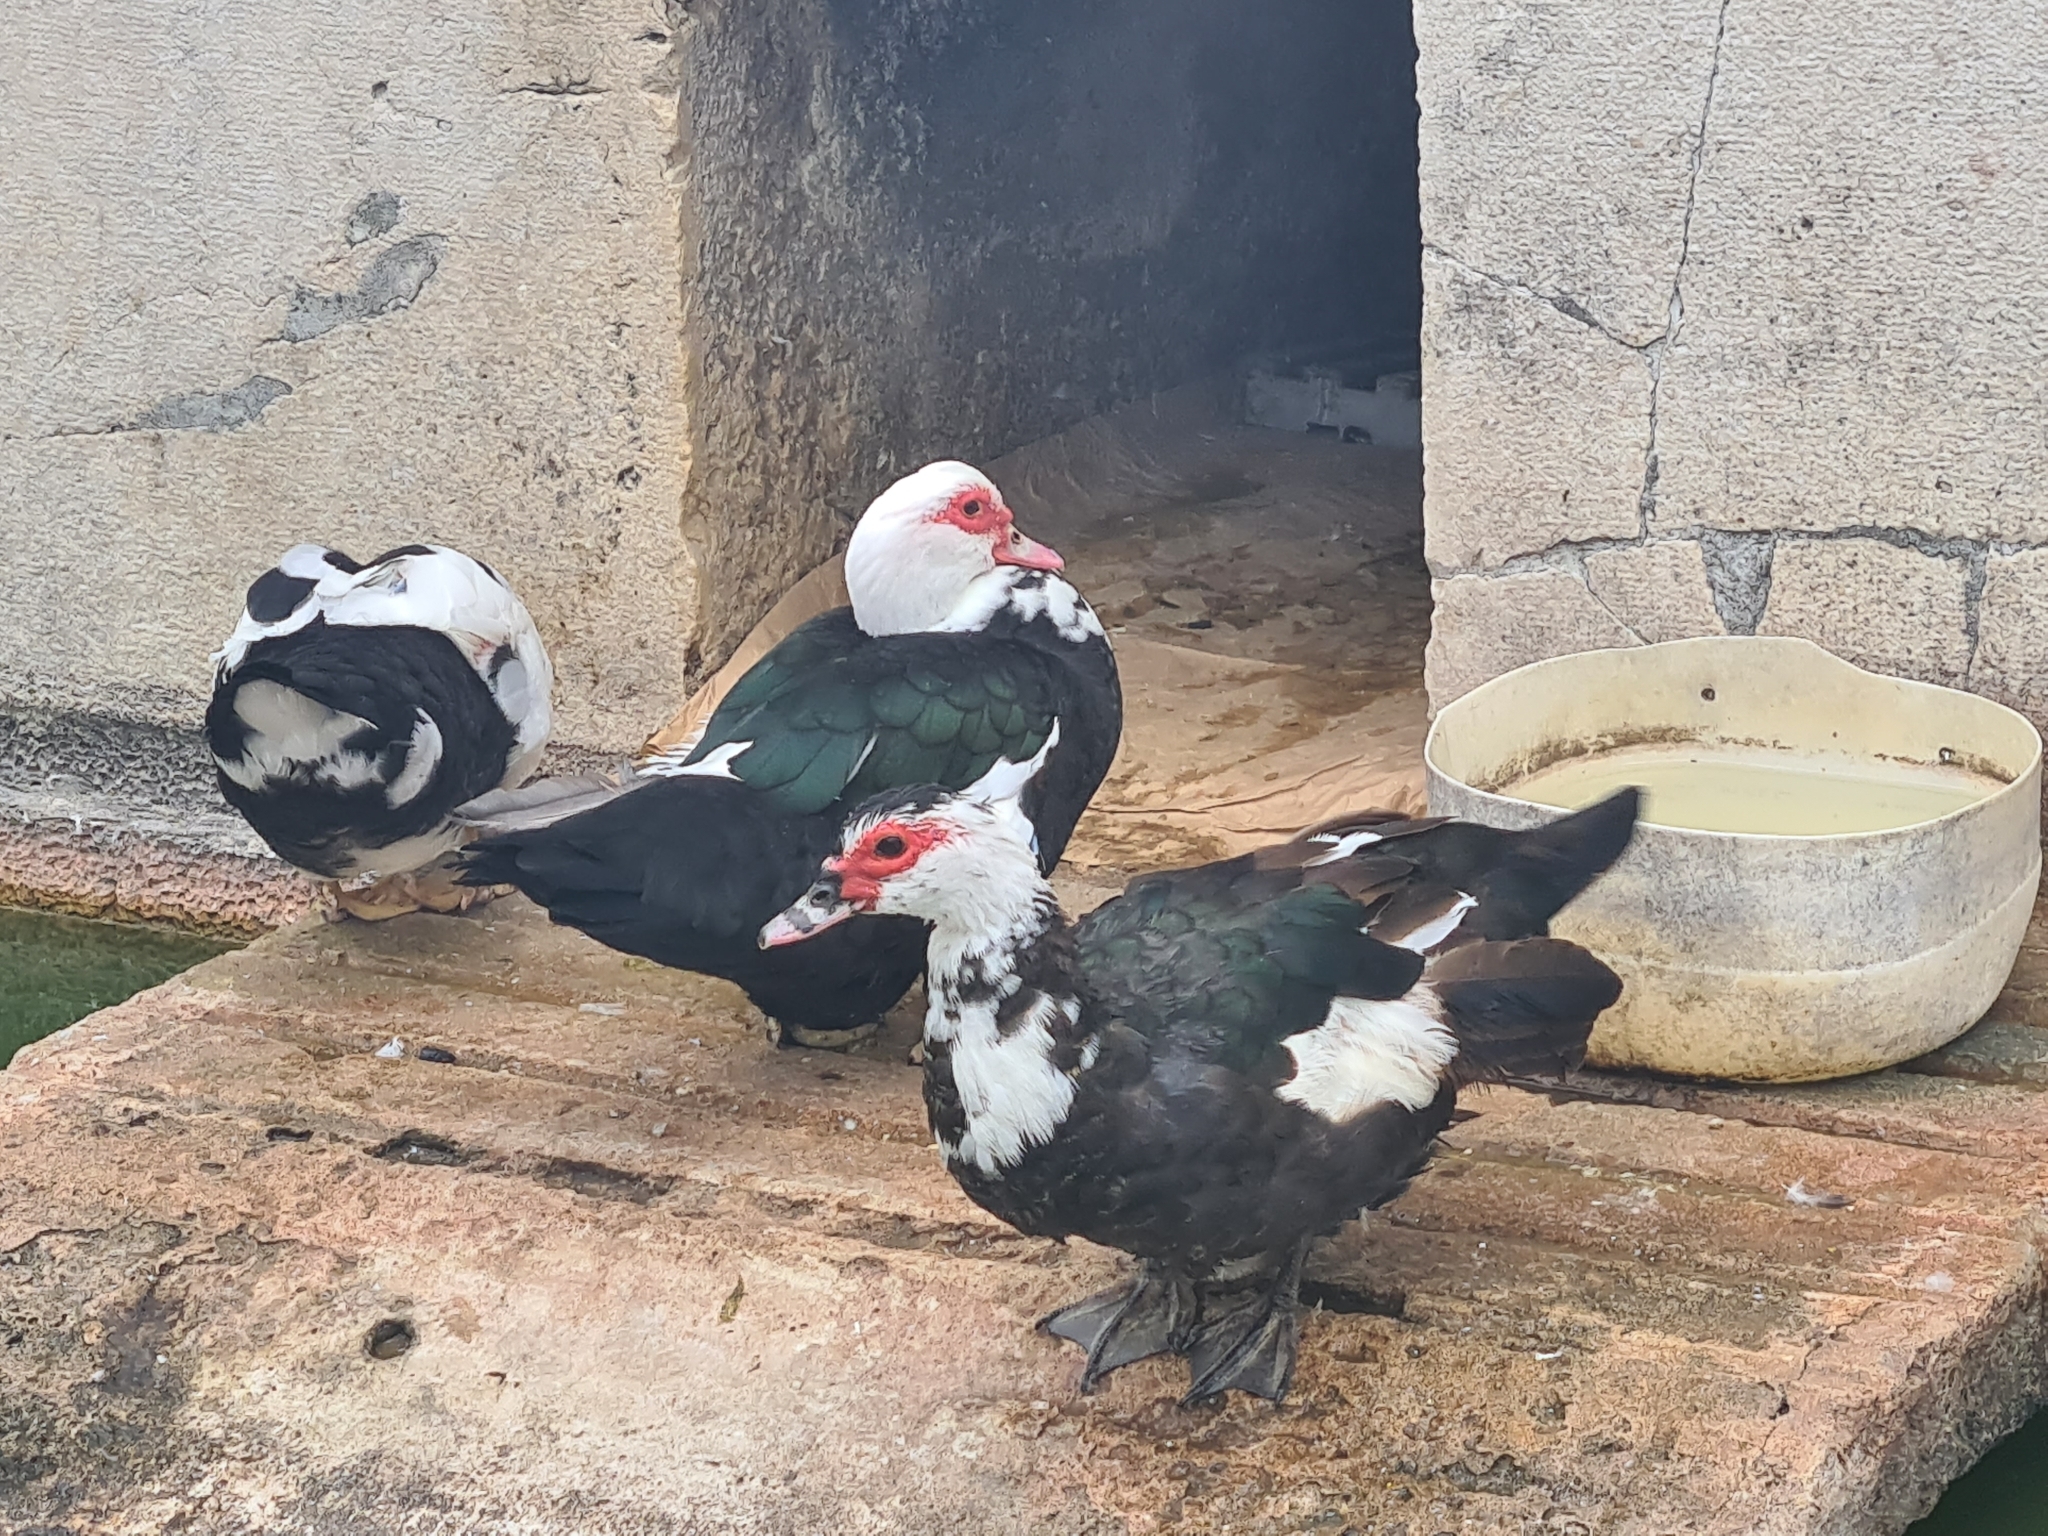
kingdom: Animalia
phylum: Chordata
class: Aves
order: Anseriformes
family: Anatidae
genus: Cairina
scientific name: Cairina moschata
